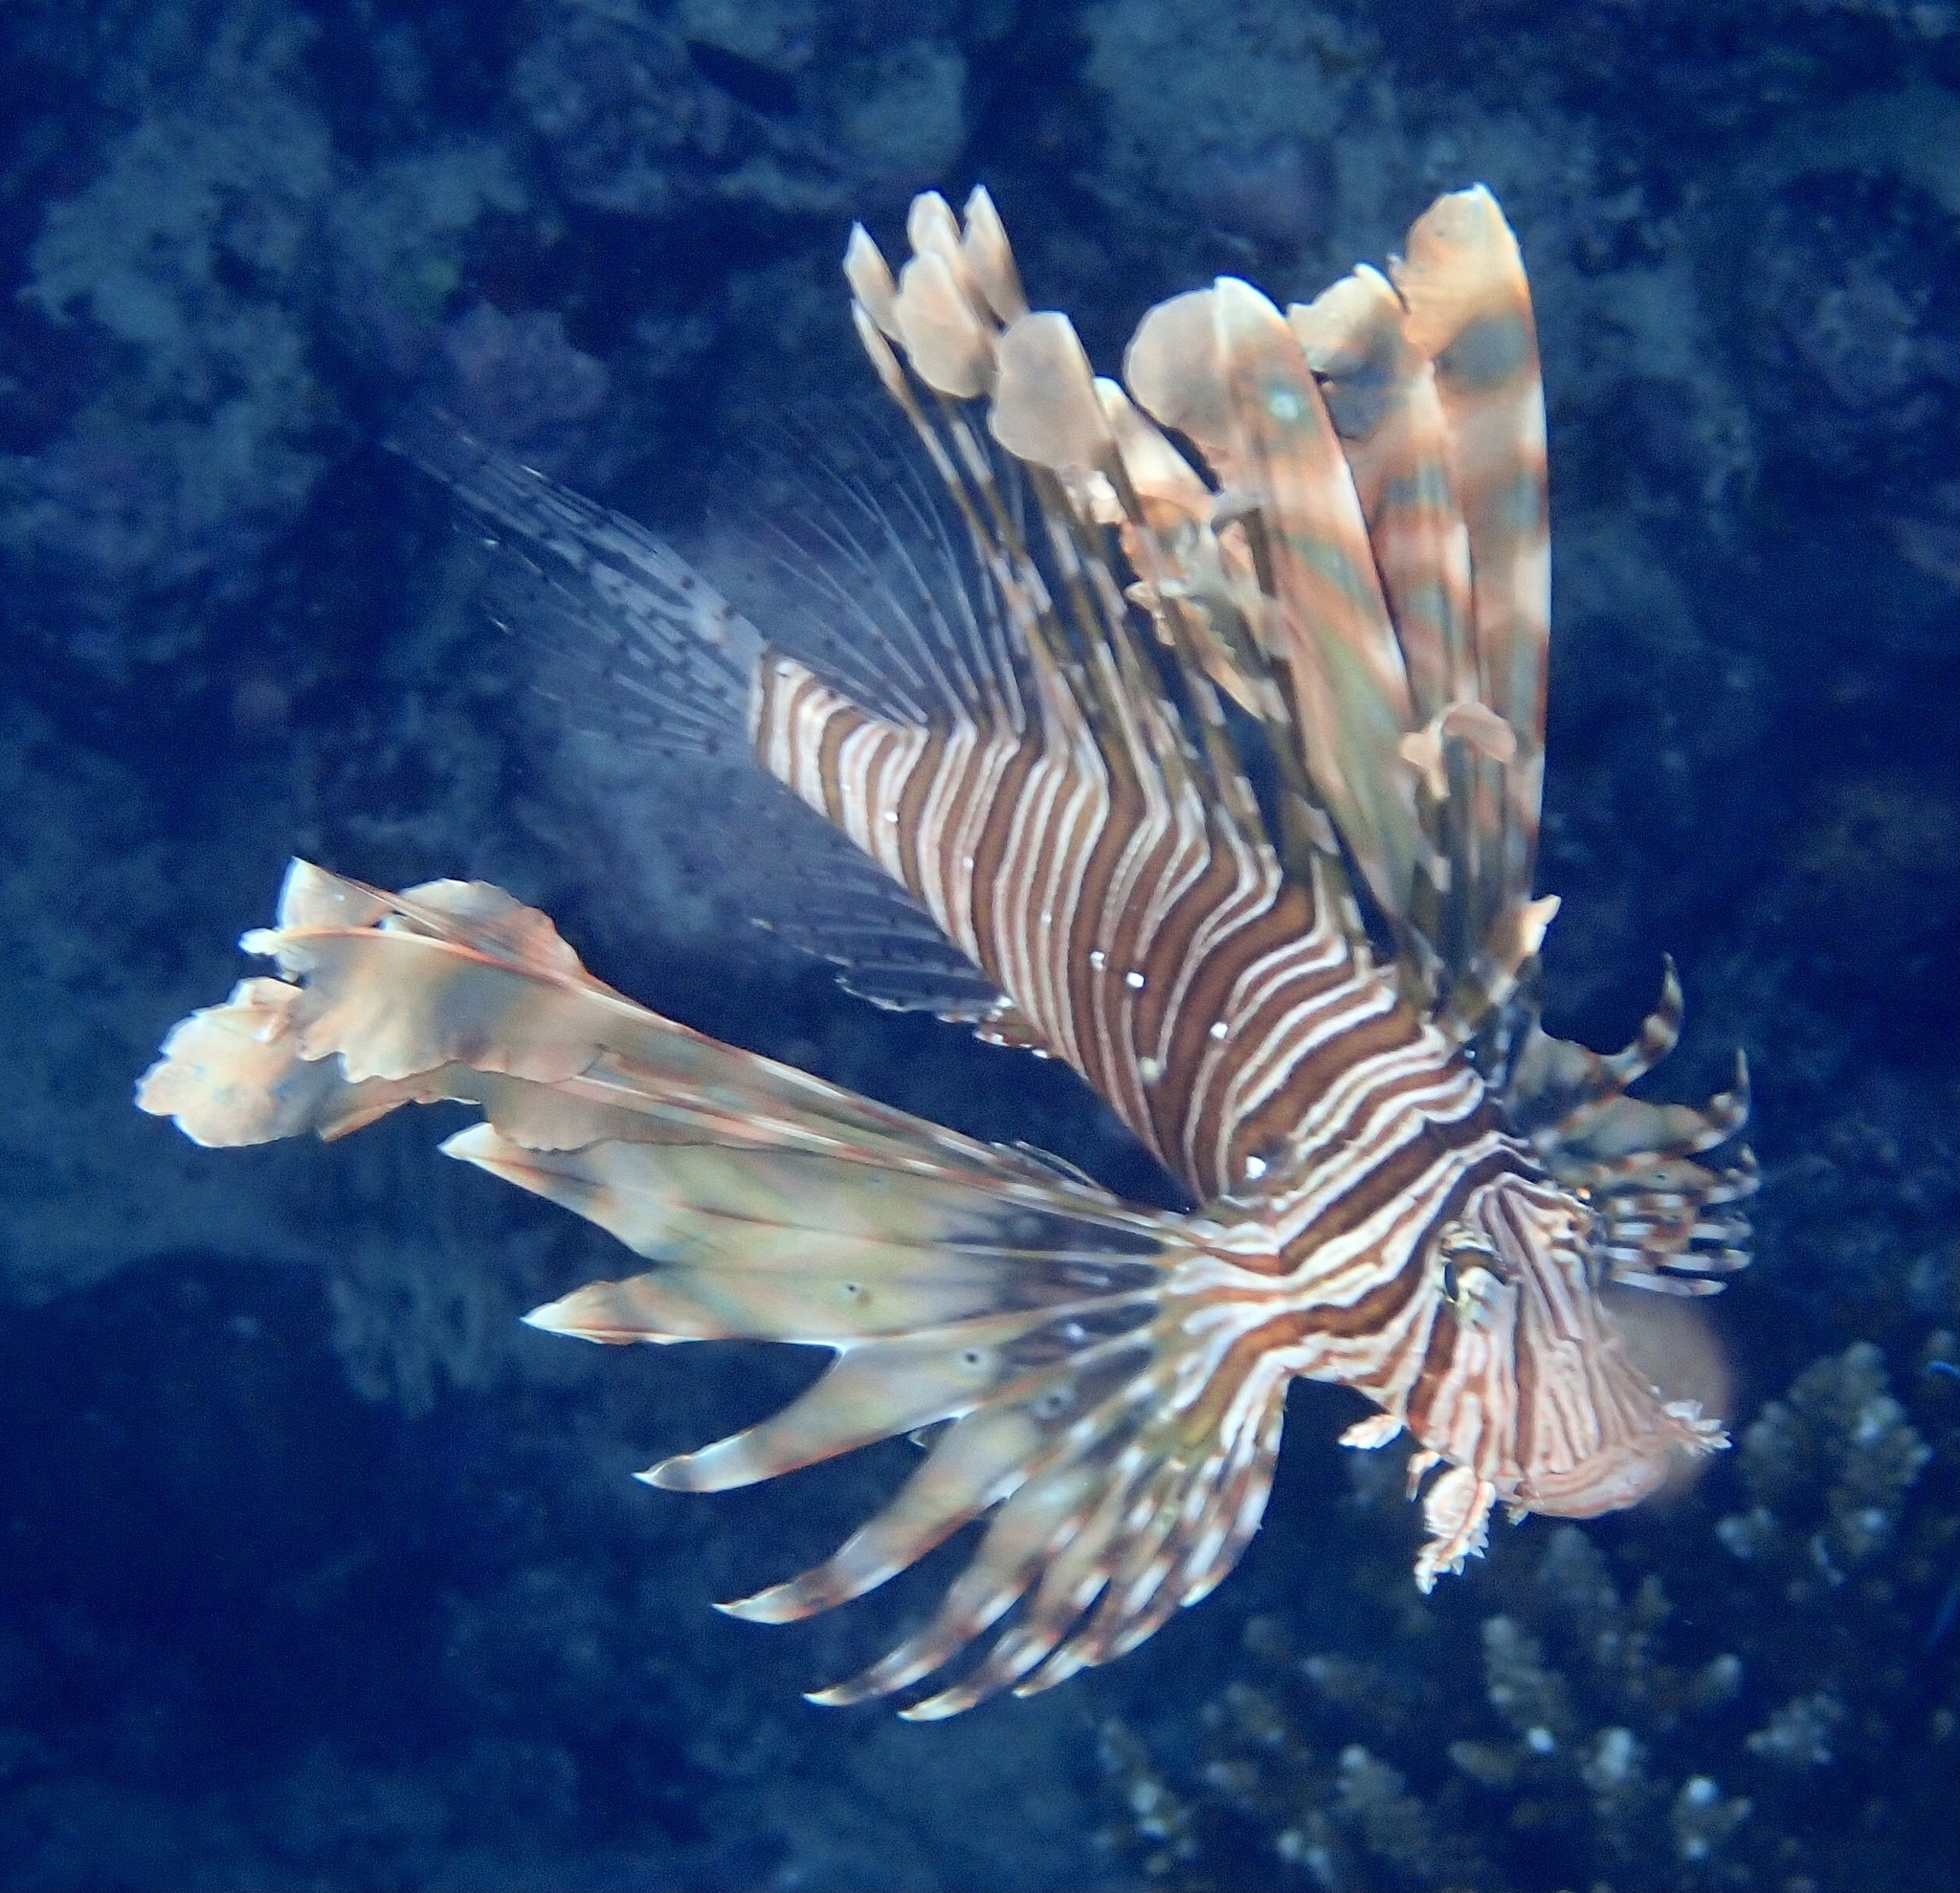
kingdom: Animalia
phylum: Chordata
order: Scorpaeniformes
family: Scorpaenidae
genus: Pterois
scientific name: Pterois miles
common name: Devil firefish
